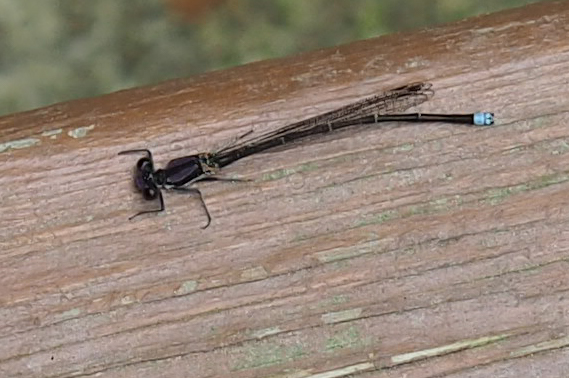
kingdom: Animalia
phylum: Arthropoda
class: Insecta
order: Odonata
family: Coenagrionidae
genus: Argia
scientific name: Argia tibialis
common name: Blue-tipped dancer
